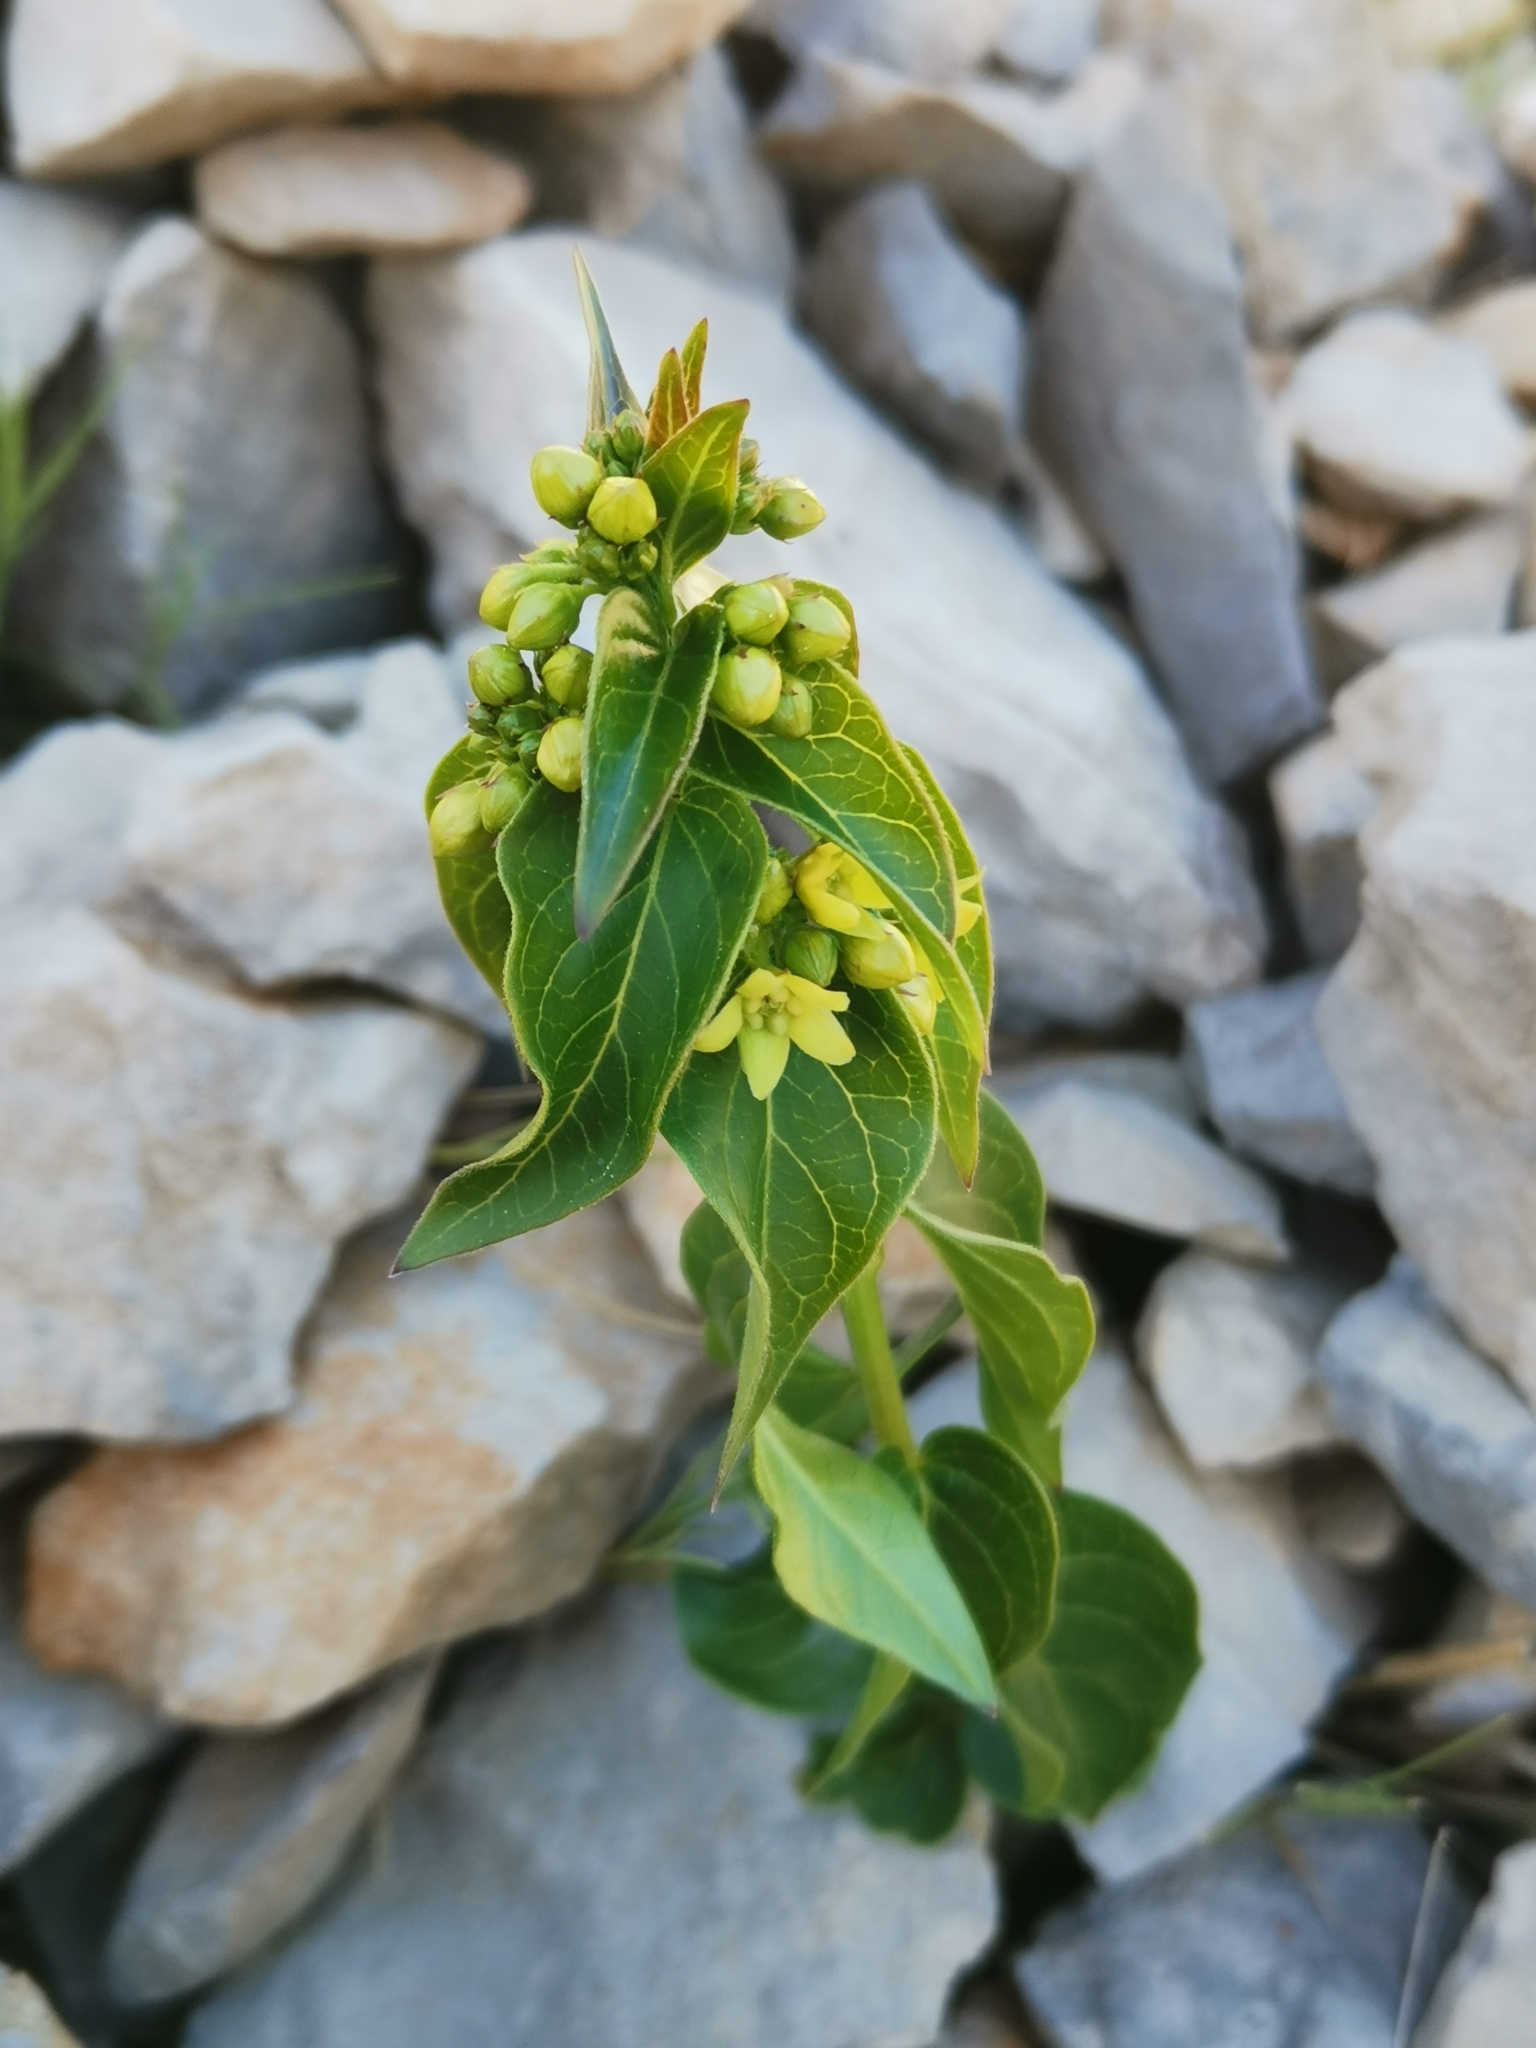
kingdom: Plantae
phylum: Tracheophyta
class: Magnoliopsida
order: Gentianales
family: Apocynaceae
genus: Vincetoxicum
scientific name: Vincetoxicum hirundinaria
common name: White swallowwort
